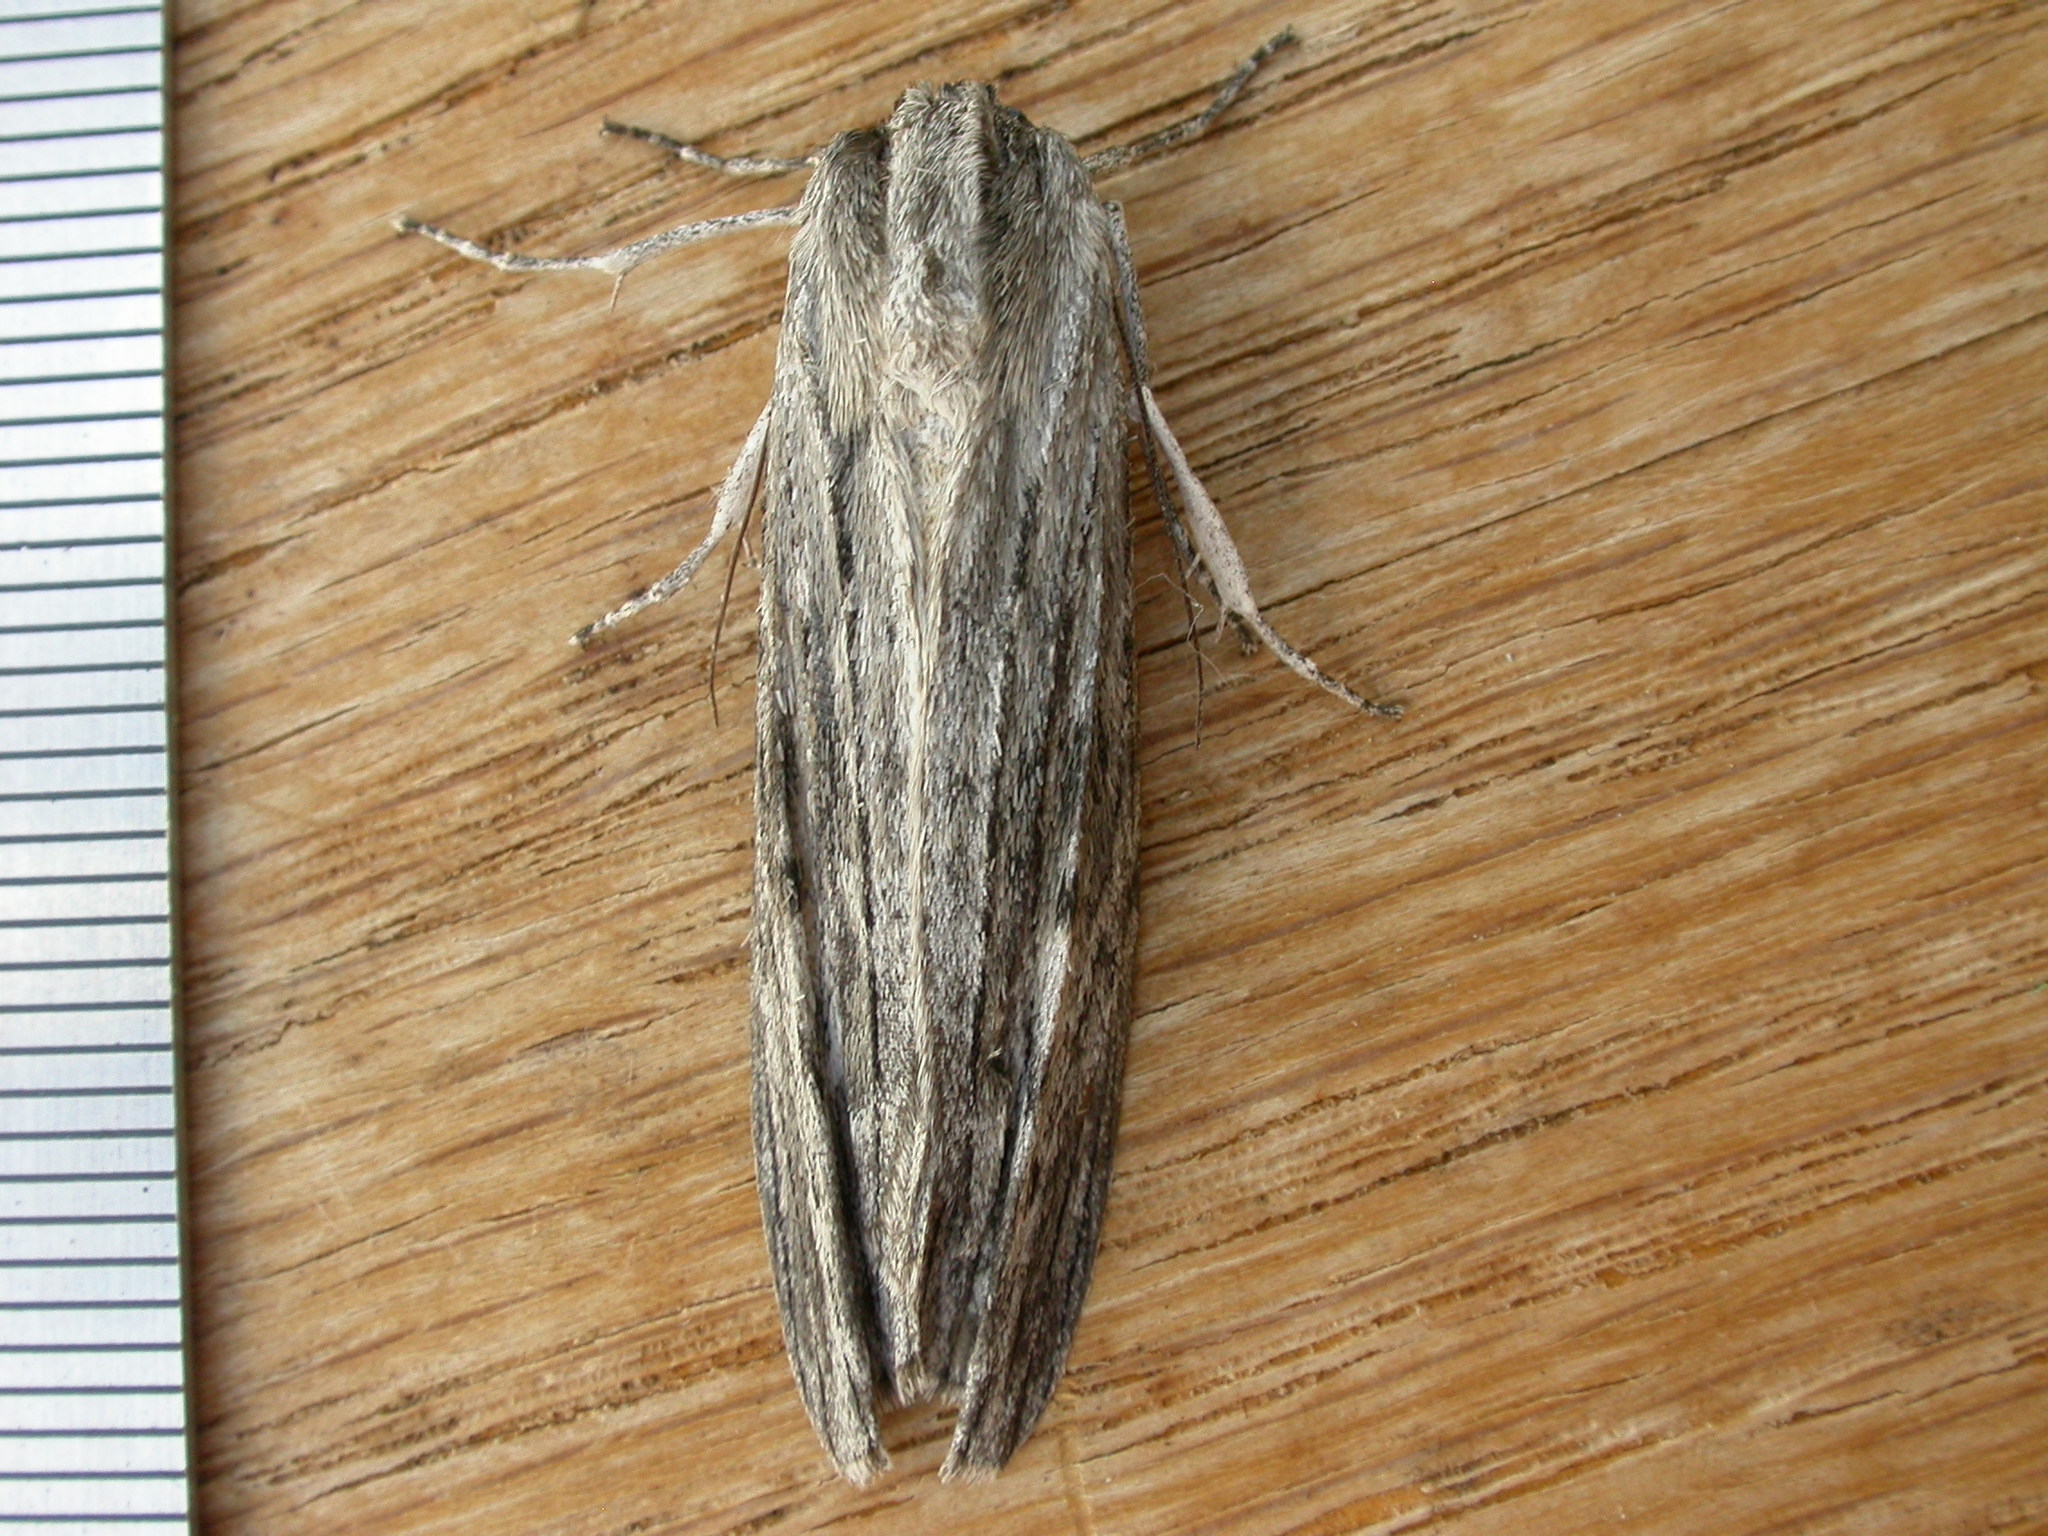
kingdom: Animalia
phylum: Arthropoda
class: Insecta
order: Lepidoptera
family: Geometridae
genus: Capusa
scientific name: Capusa senilis
